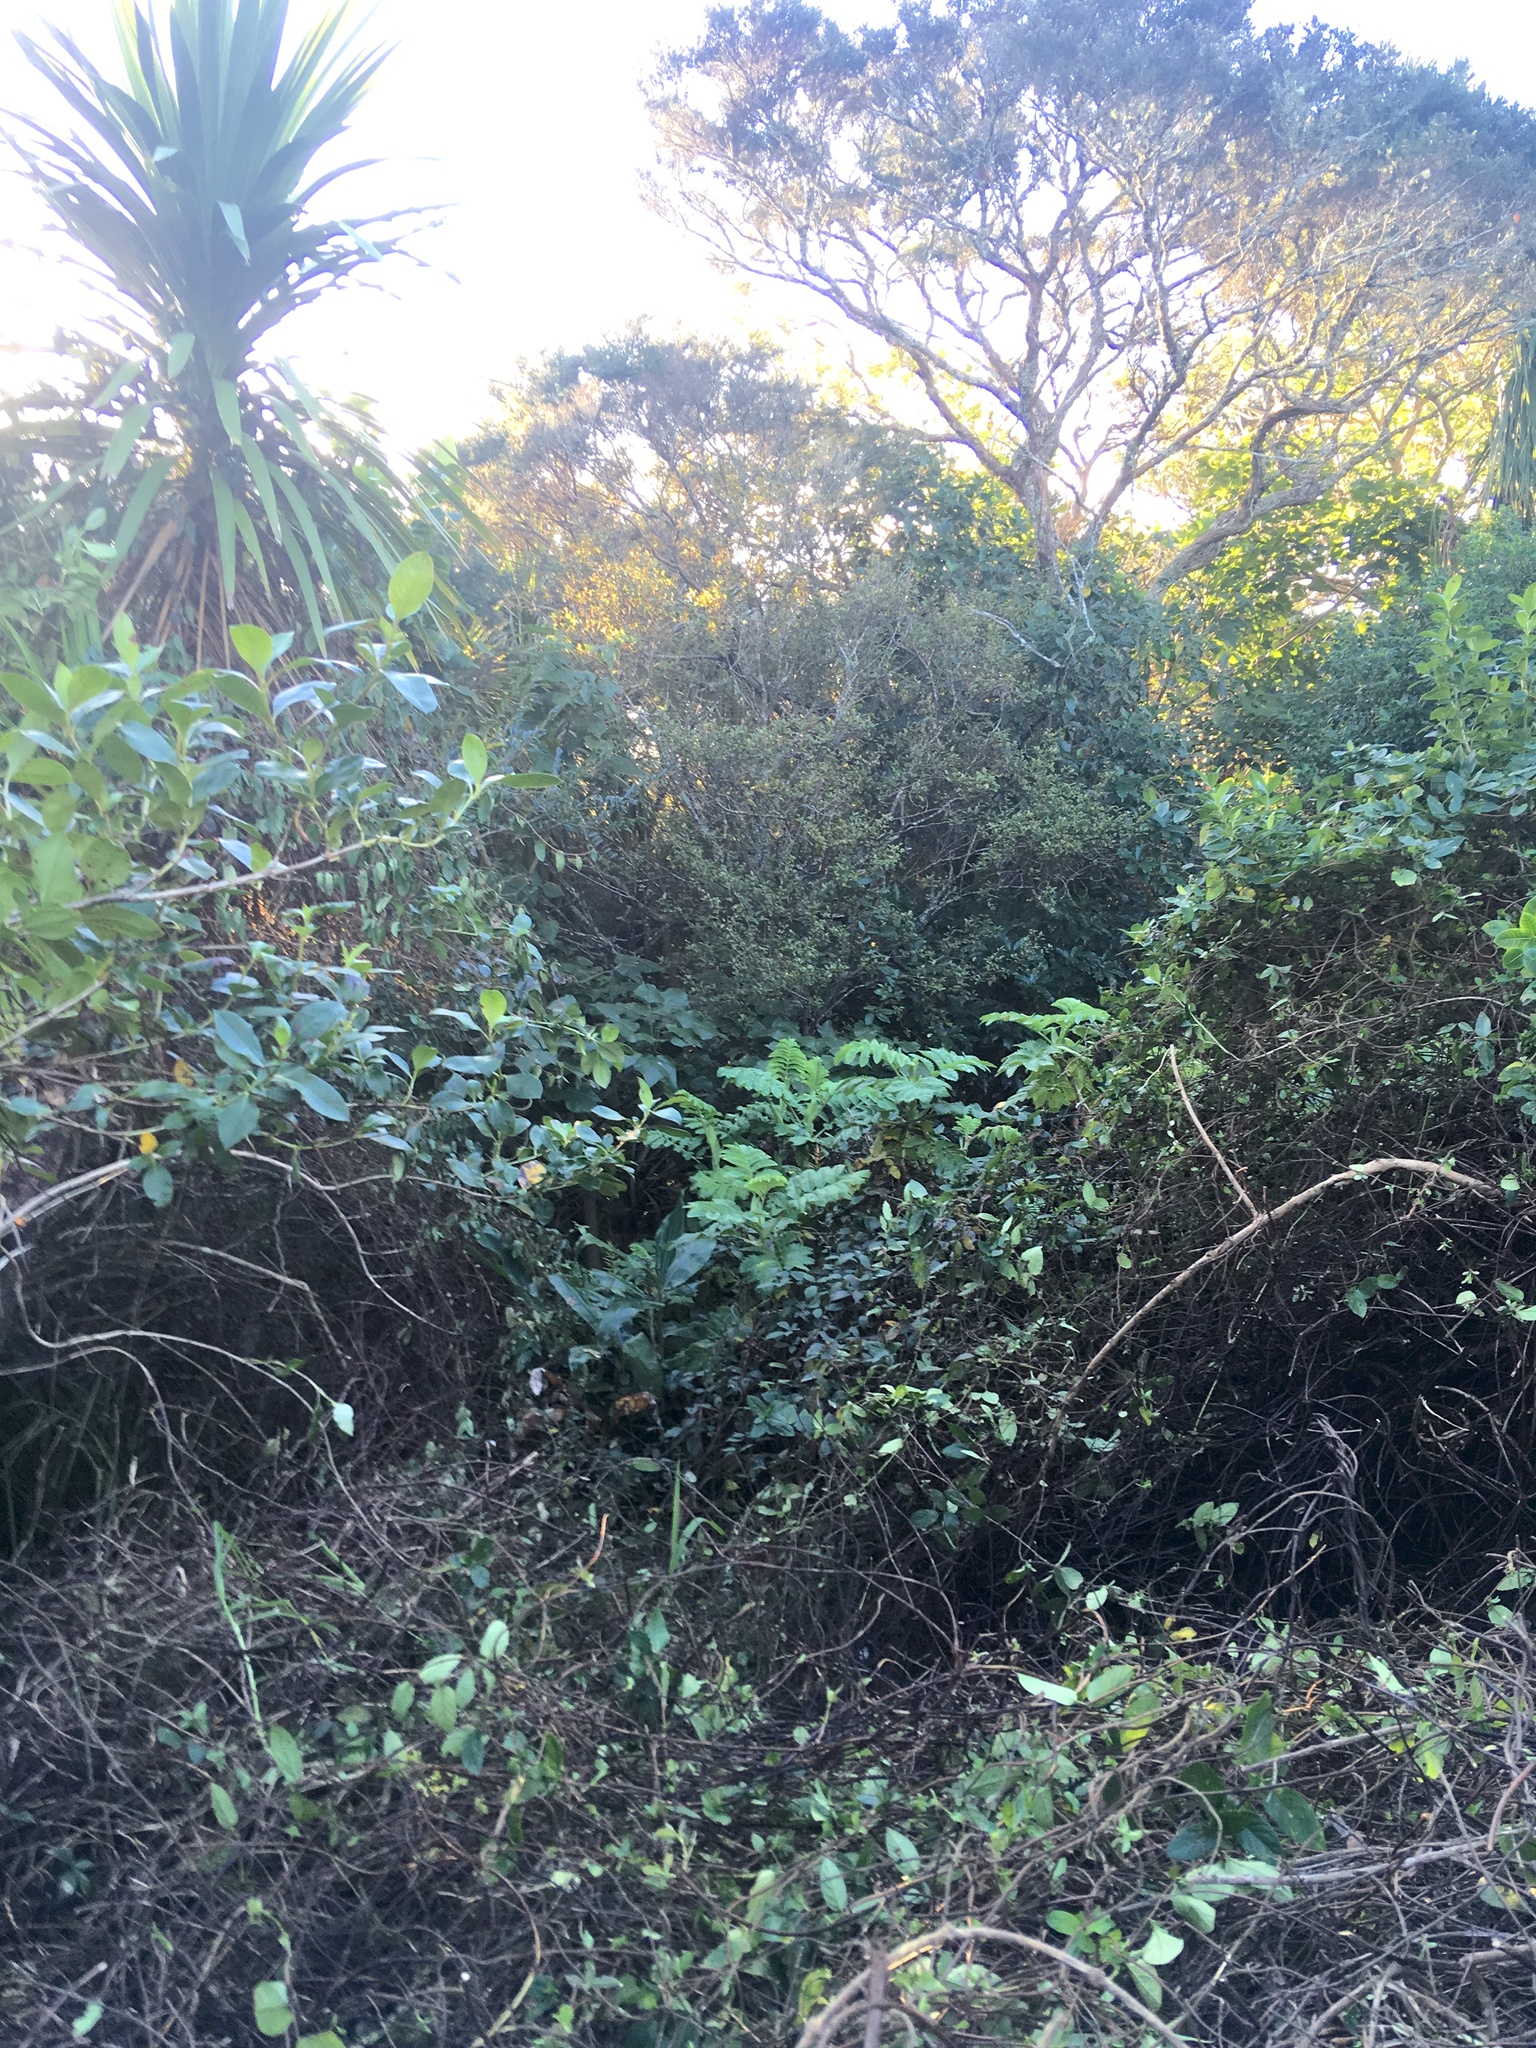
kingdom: Plantae
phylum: Tracheophyta
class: Magnoliopsida
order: Ericales
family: Primulaceae
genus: Myrsine
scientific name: Myrsine australis
